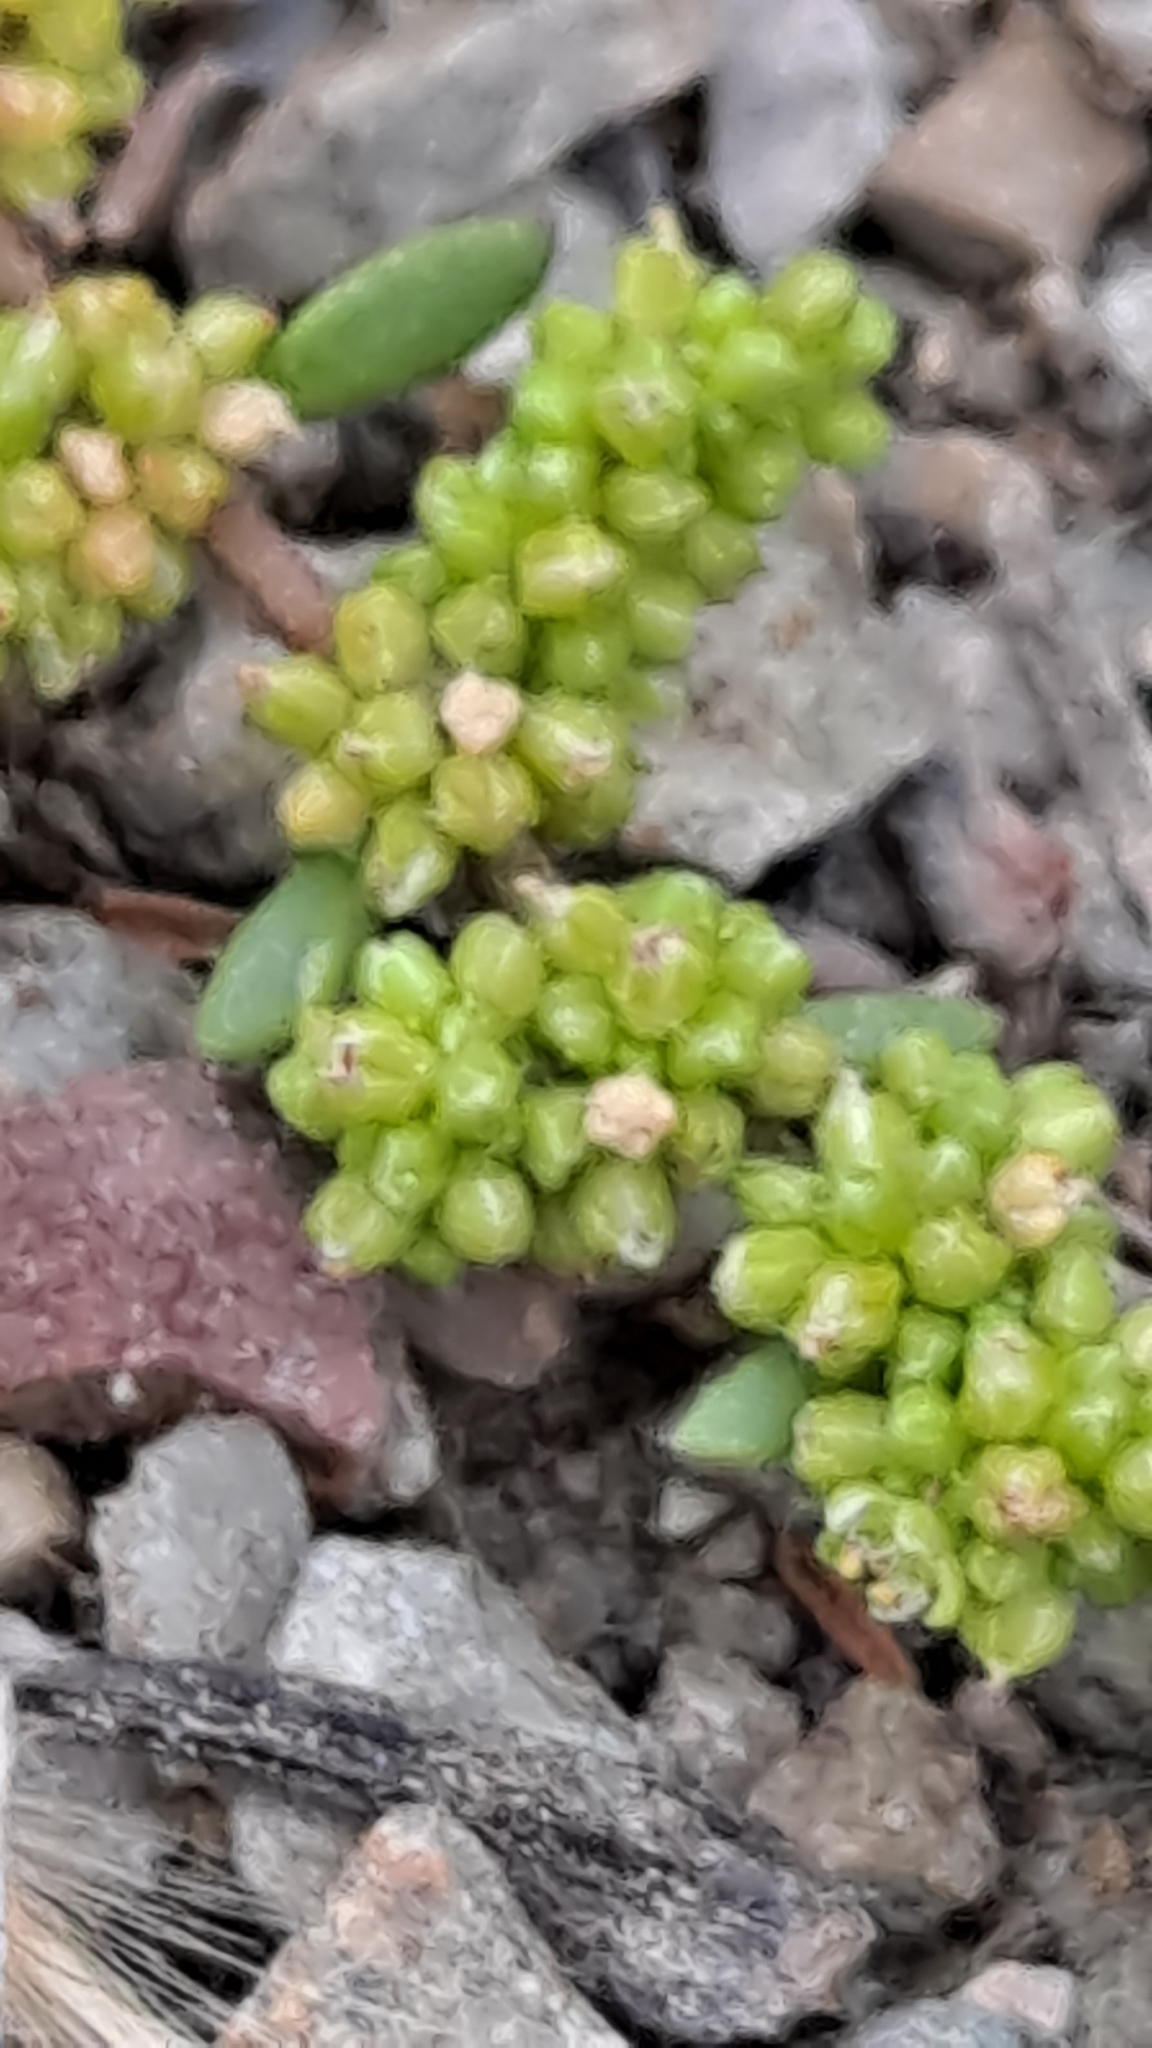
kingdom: Plantae
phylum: Tracheophyta
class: Magnoliopsida
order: Caryophyllales
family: Caryophyllaceae
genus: Herniaria
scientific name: Herniaria glabra
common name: Smooth rupturewort
